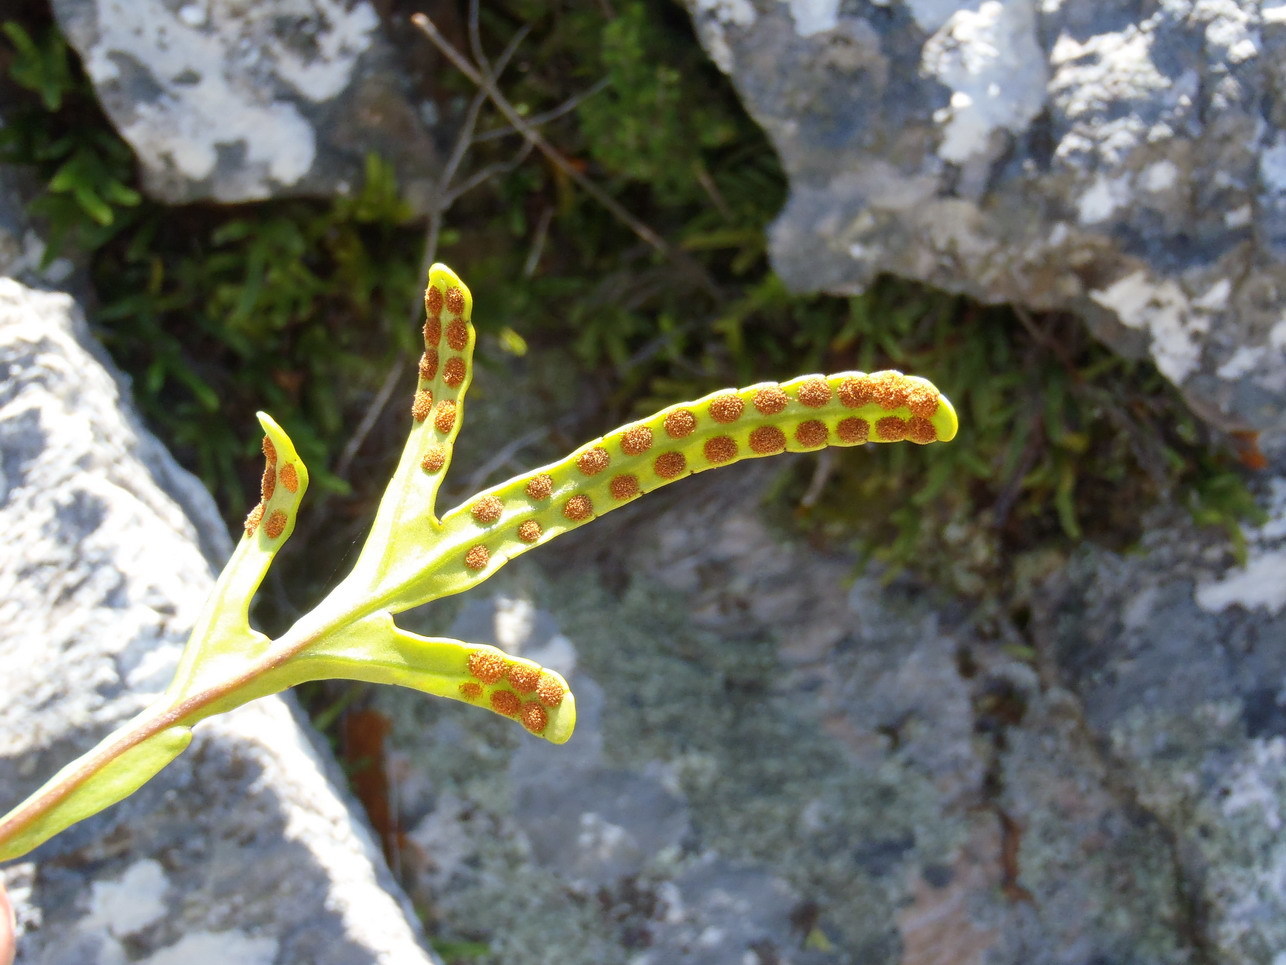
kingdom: Plantae
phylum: Tracheophyta
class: Polypodiopsida
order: Polypodiales
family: Polypodiaceae
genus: Polypodium
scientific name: Polypodium ensiforme
